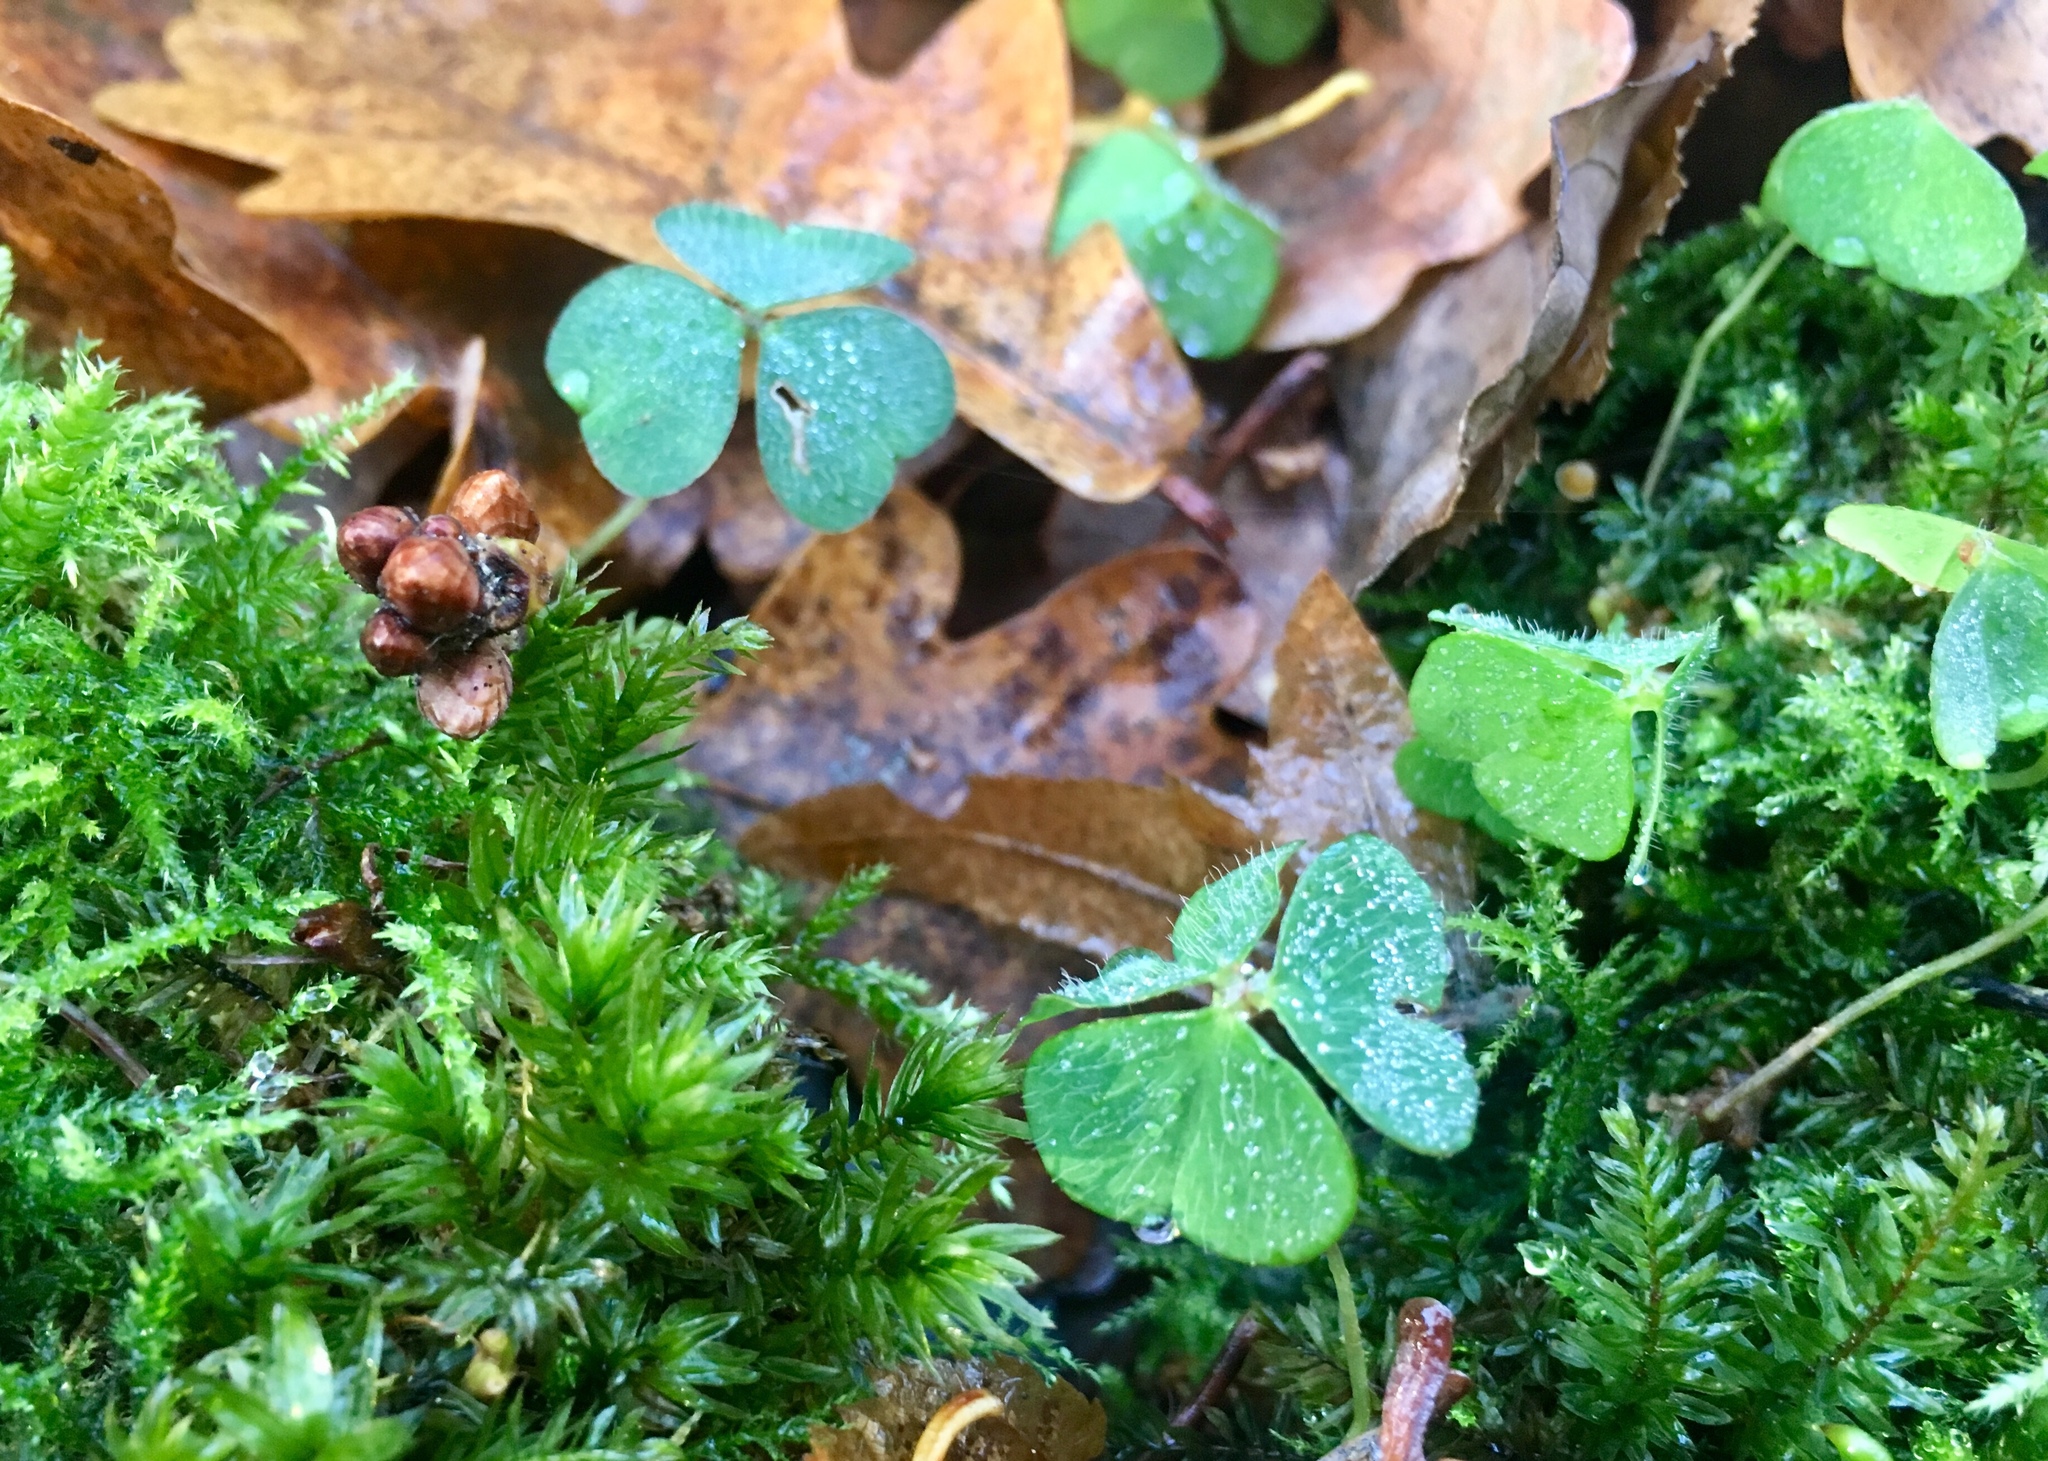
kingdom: Plantae
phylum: Tracheophyta
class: Magnoliopsida
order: Oxalidales
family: Oxalidaceae
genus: Oxalis
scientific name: Oxalis acetosella
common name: Wood-sorrel
